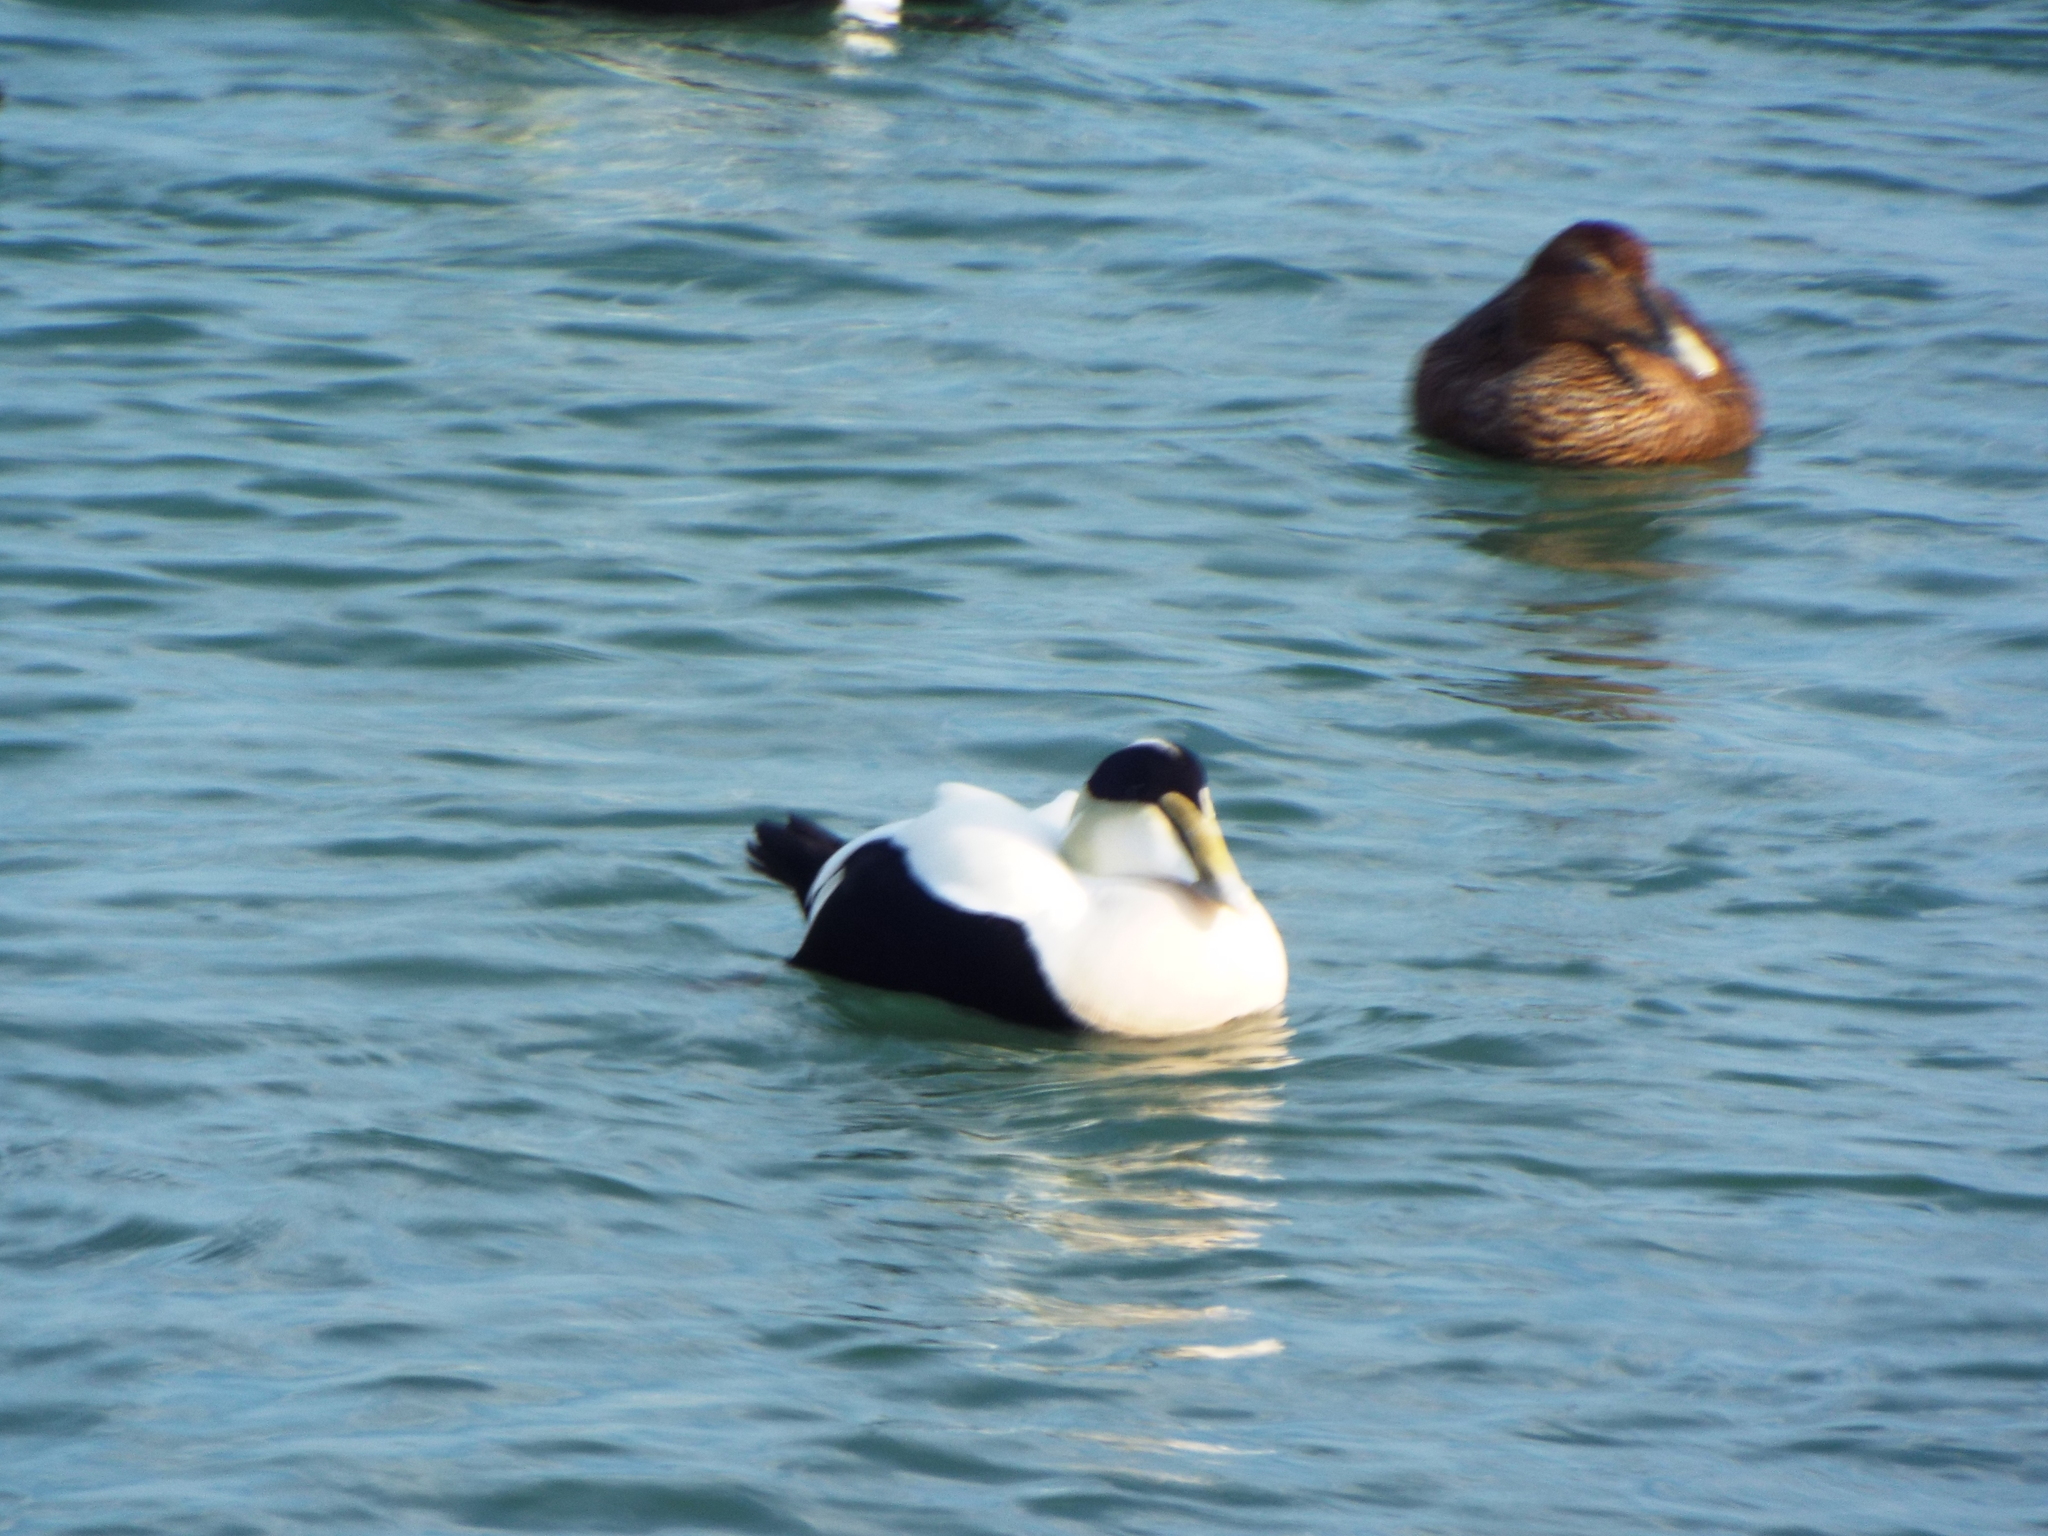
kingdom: Animalia
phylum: Chordata
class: Aves
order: Anseriformes
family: Anatidae
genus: Somateria
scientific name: Somateria mollissima
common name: Common eider
